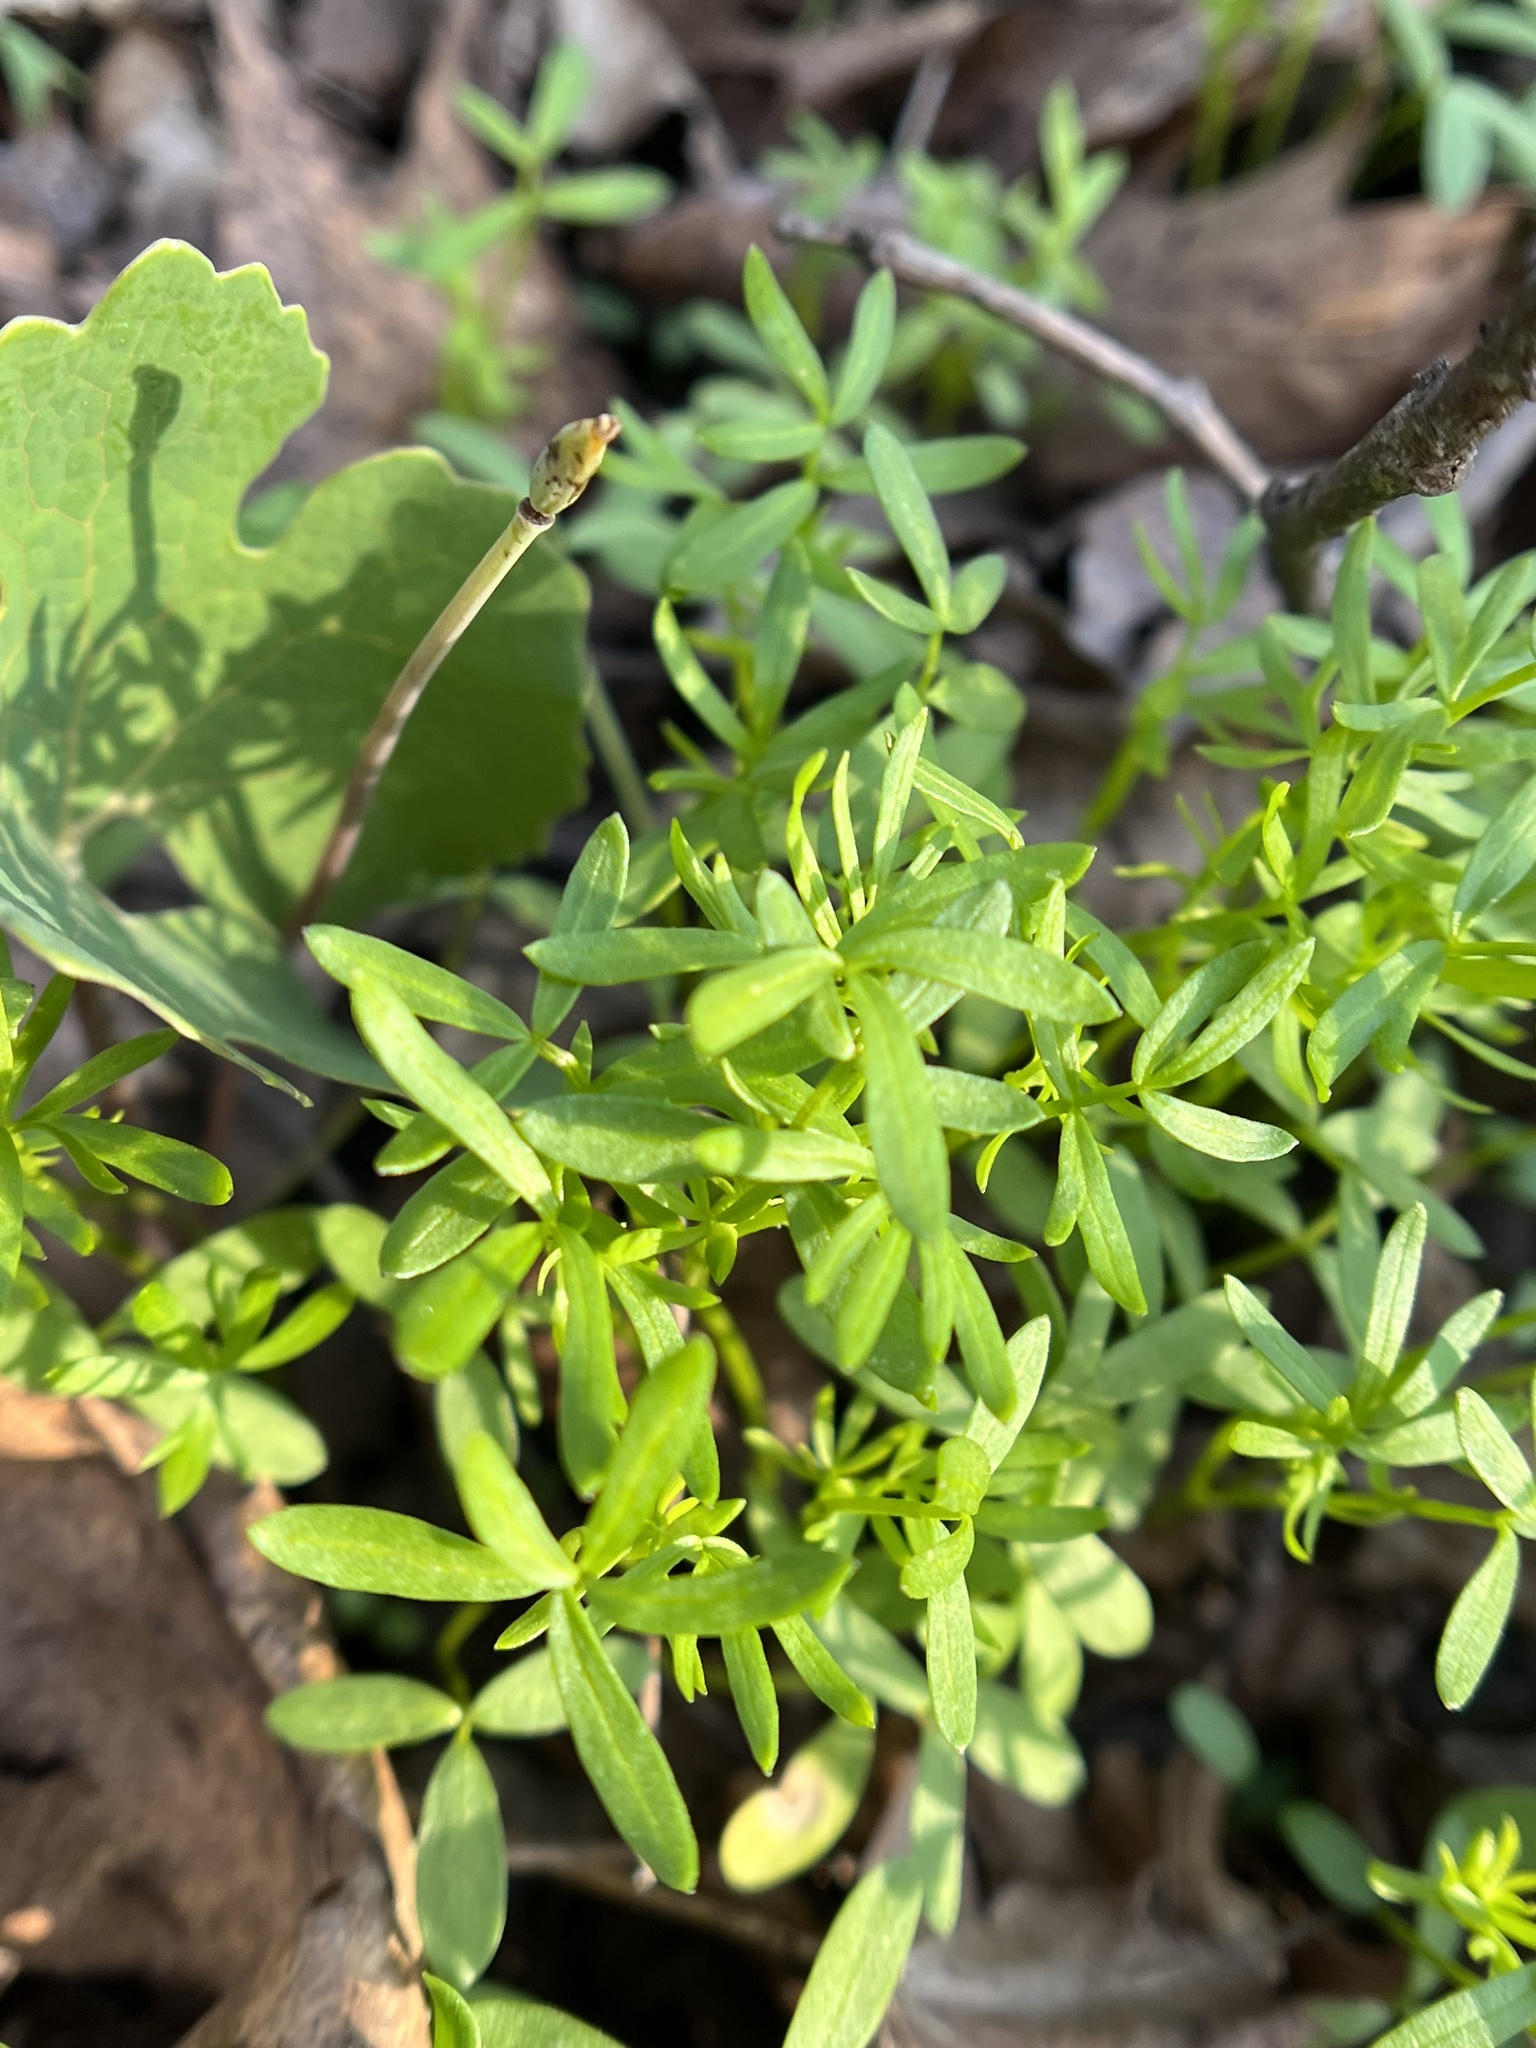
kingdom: Plantae
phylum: Tracheophyta
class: Magnoliopsida
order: Brassicales
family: Limnanthaceae
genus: Floerkea
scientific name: Floerkea proserpinacoides
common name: False mermaid
